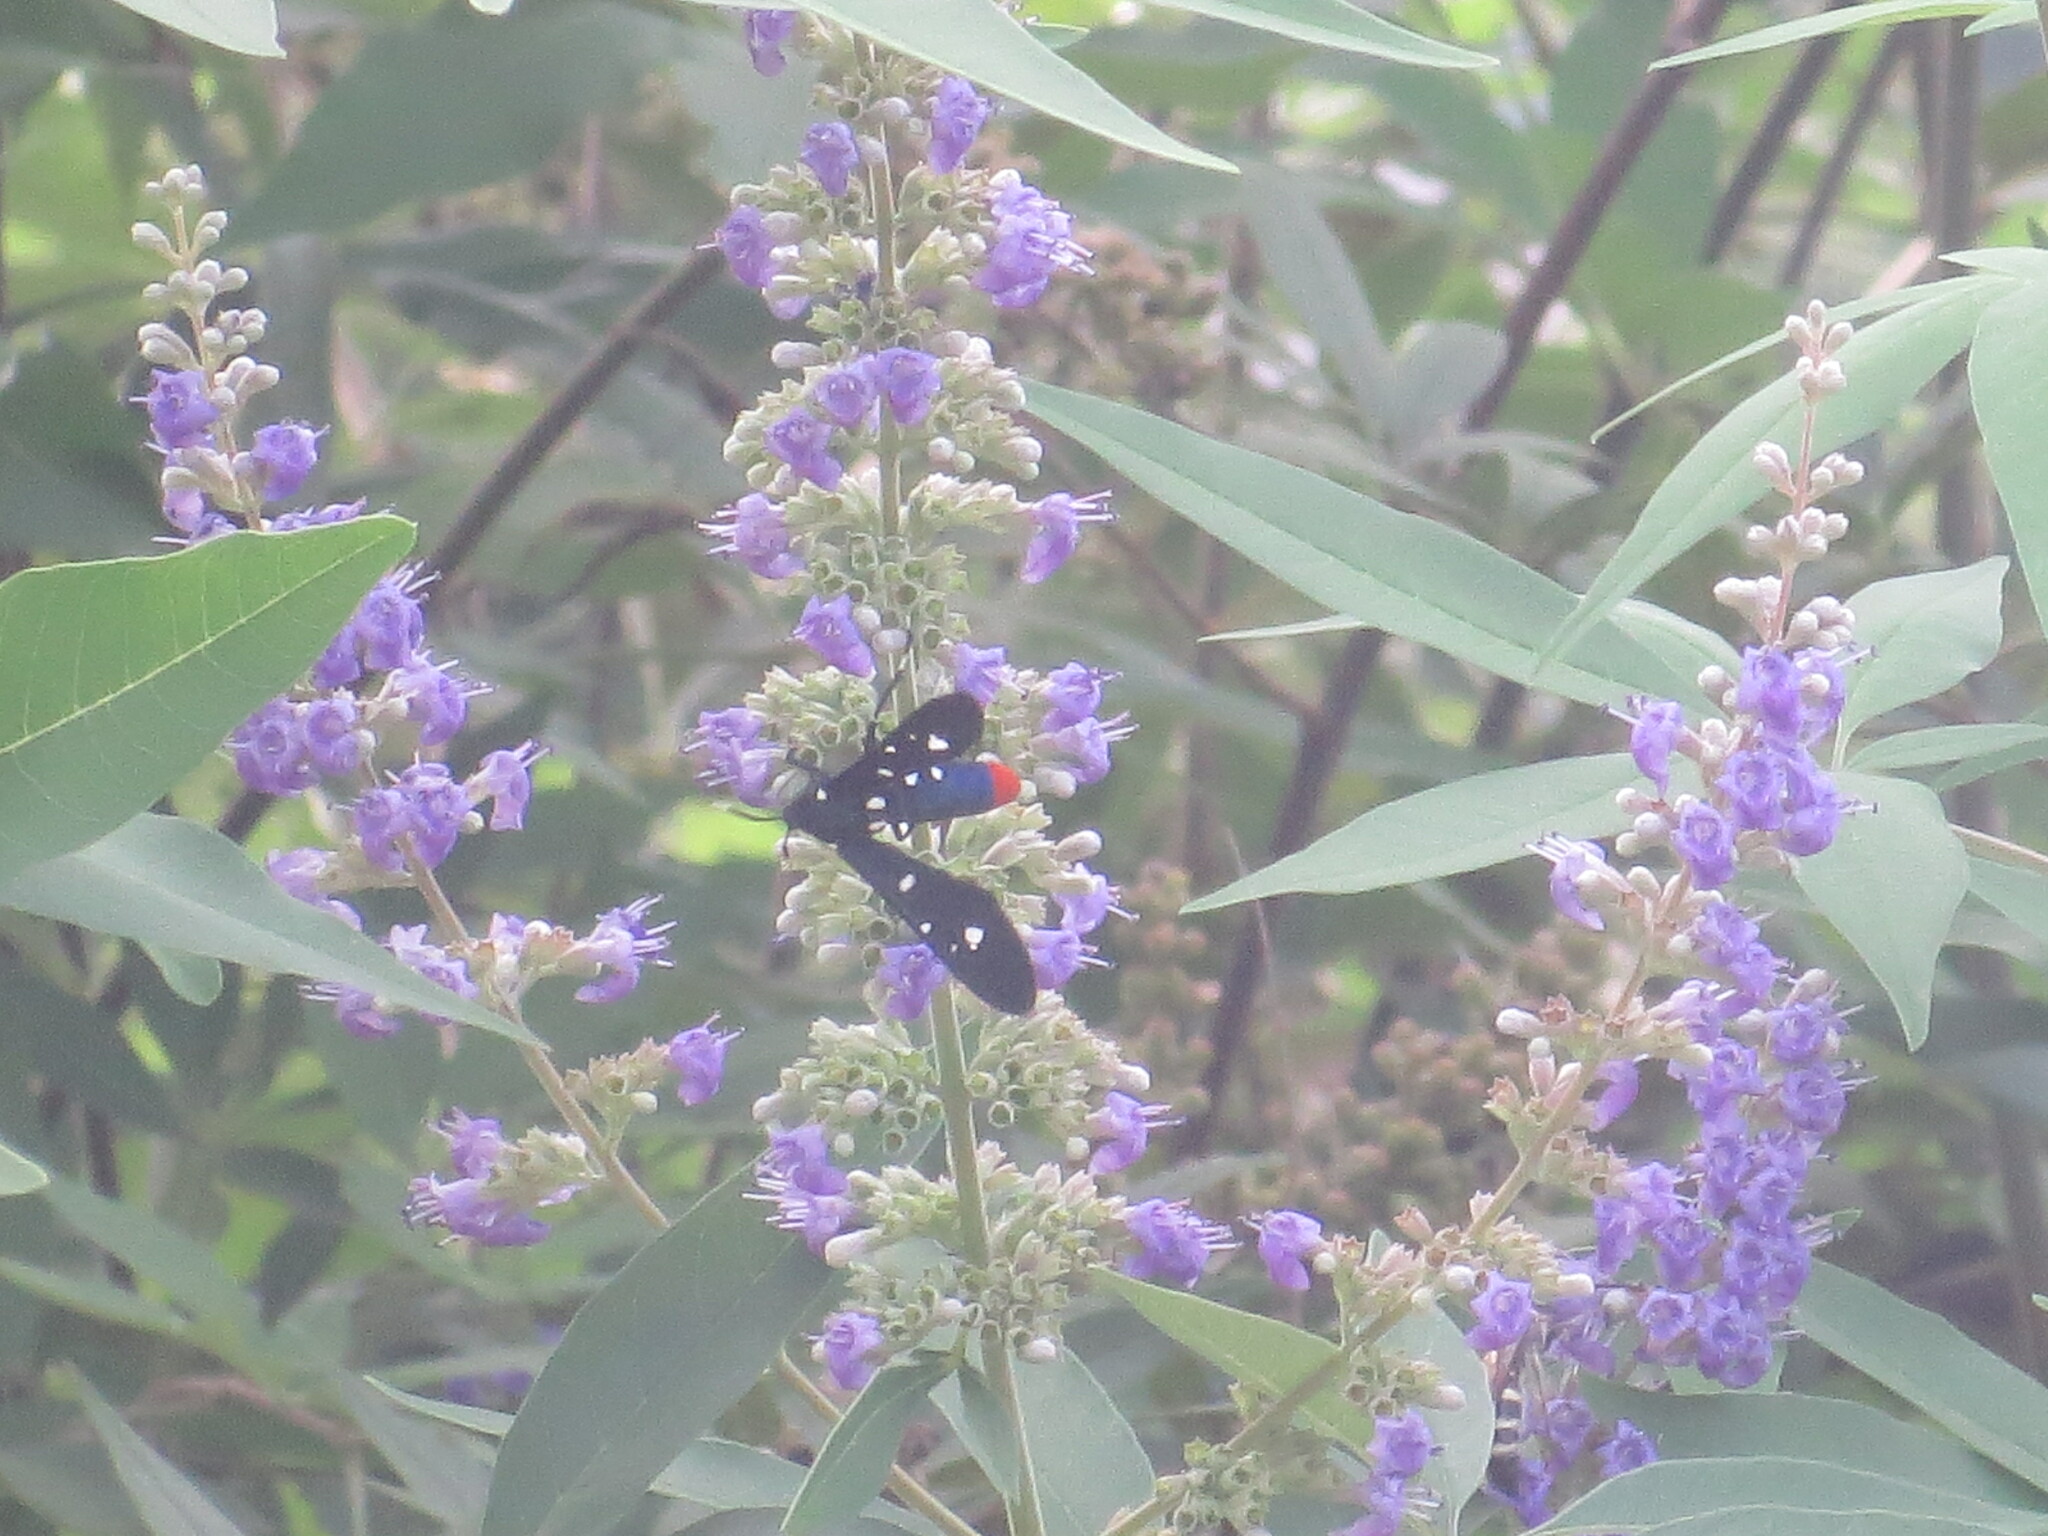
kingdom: Animalia
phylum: Arthropoda
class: Insecta
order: Lepidoptera
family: Erebidae
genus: Syntomeida
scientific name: Syntomeida epilais
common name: Polka-dot wasp moth
